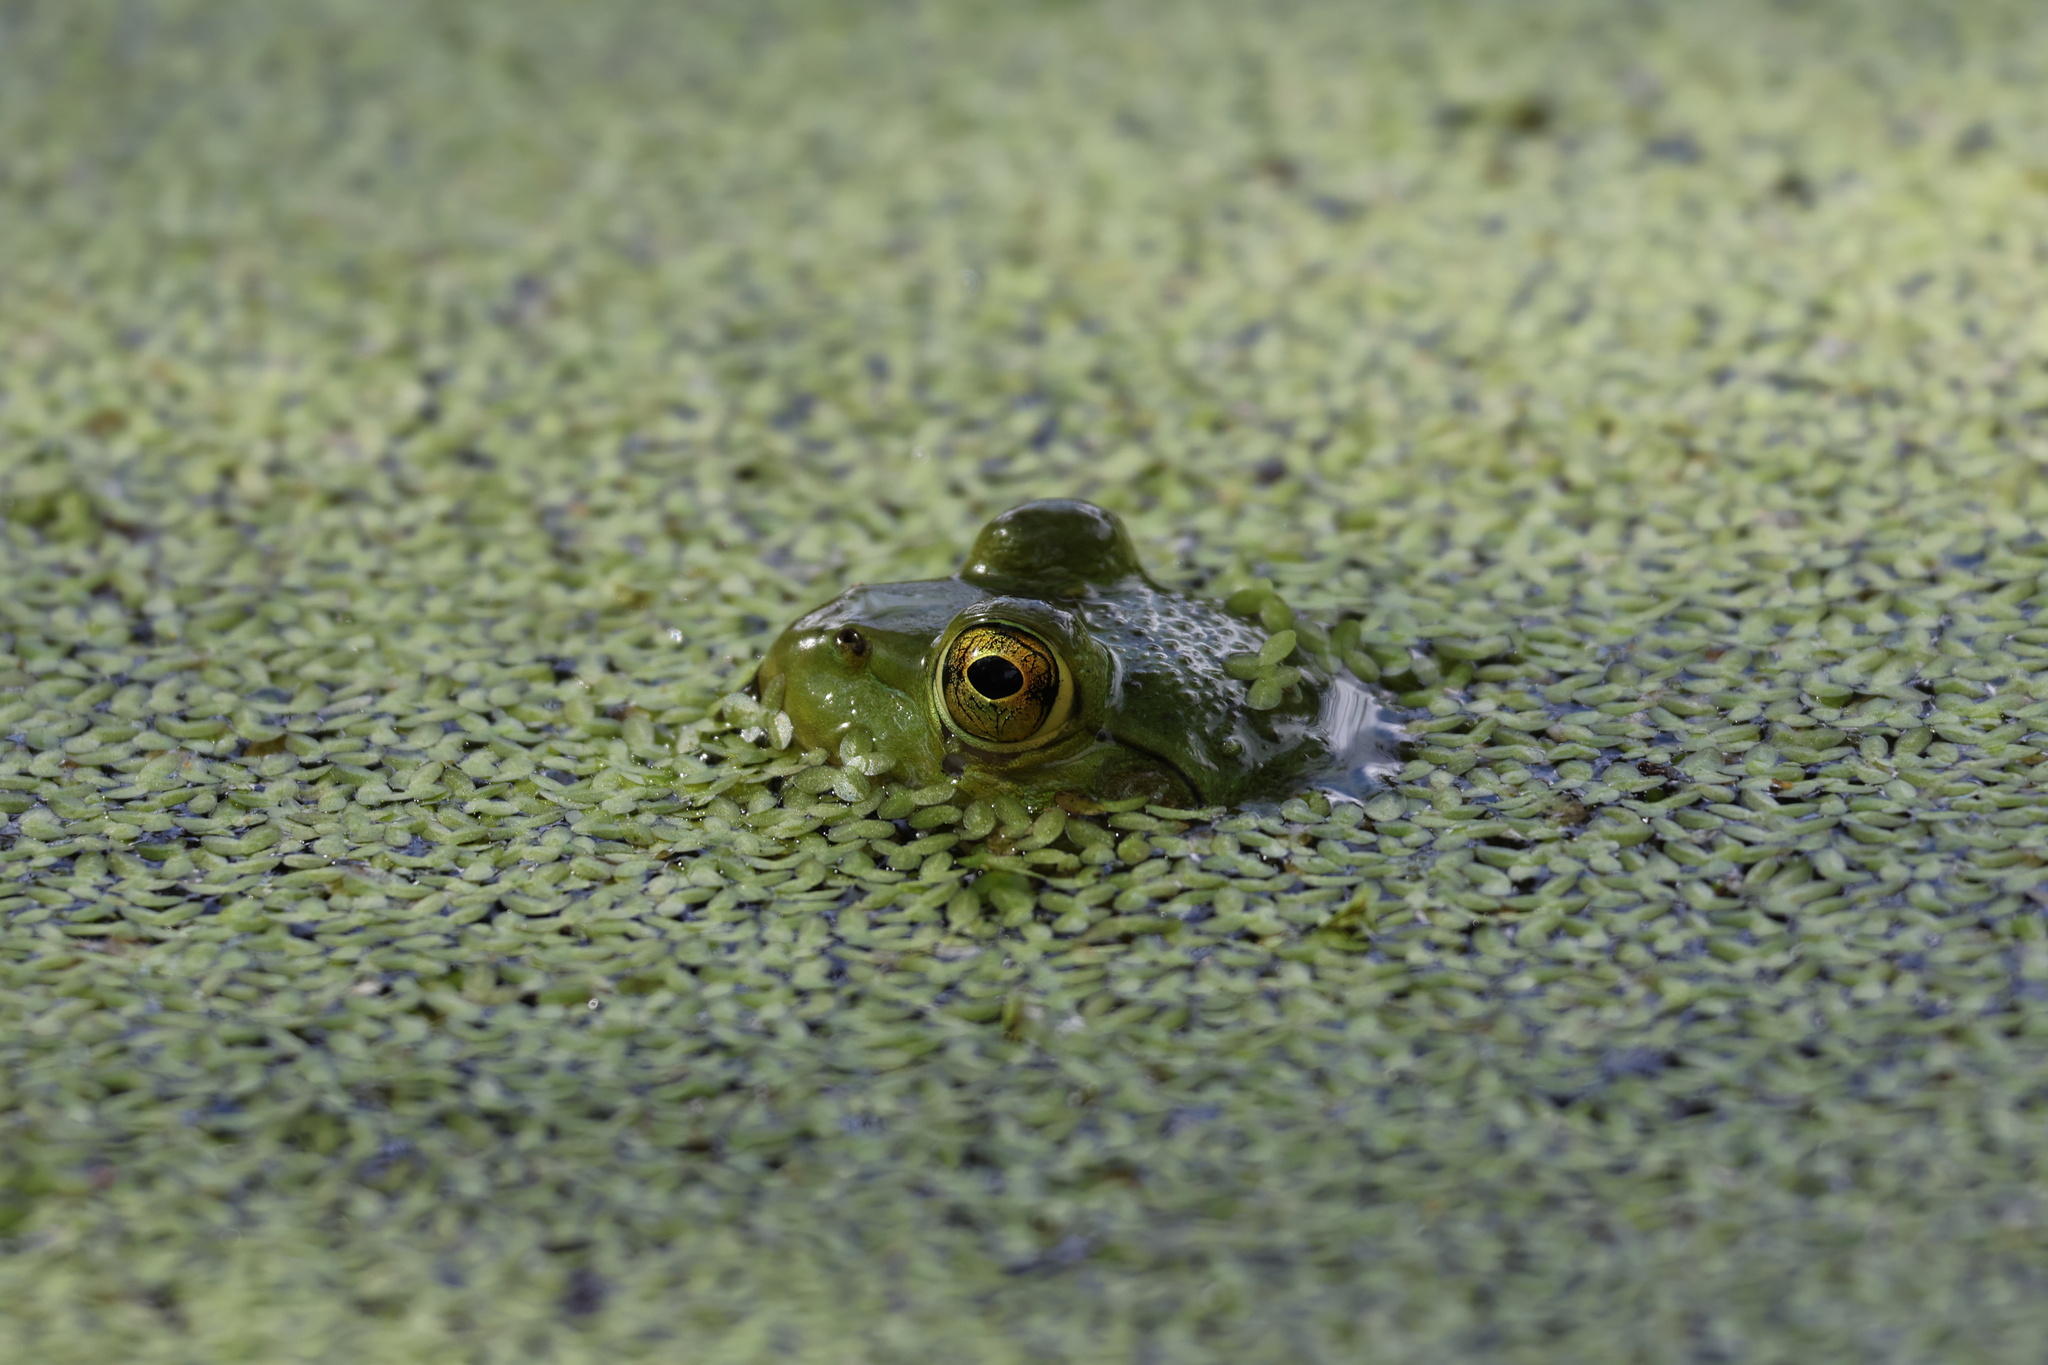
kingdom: Animalia
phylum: Chordata
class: Amphibia
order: Anura
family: Ranidae
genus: Lithobates
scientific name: Lithobates catesbeianus
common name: American bullfrog
